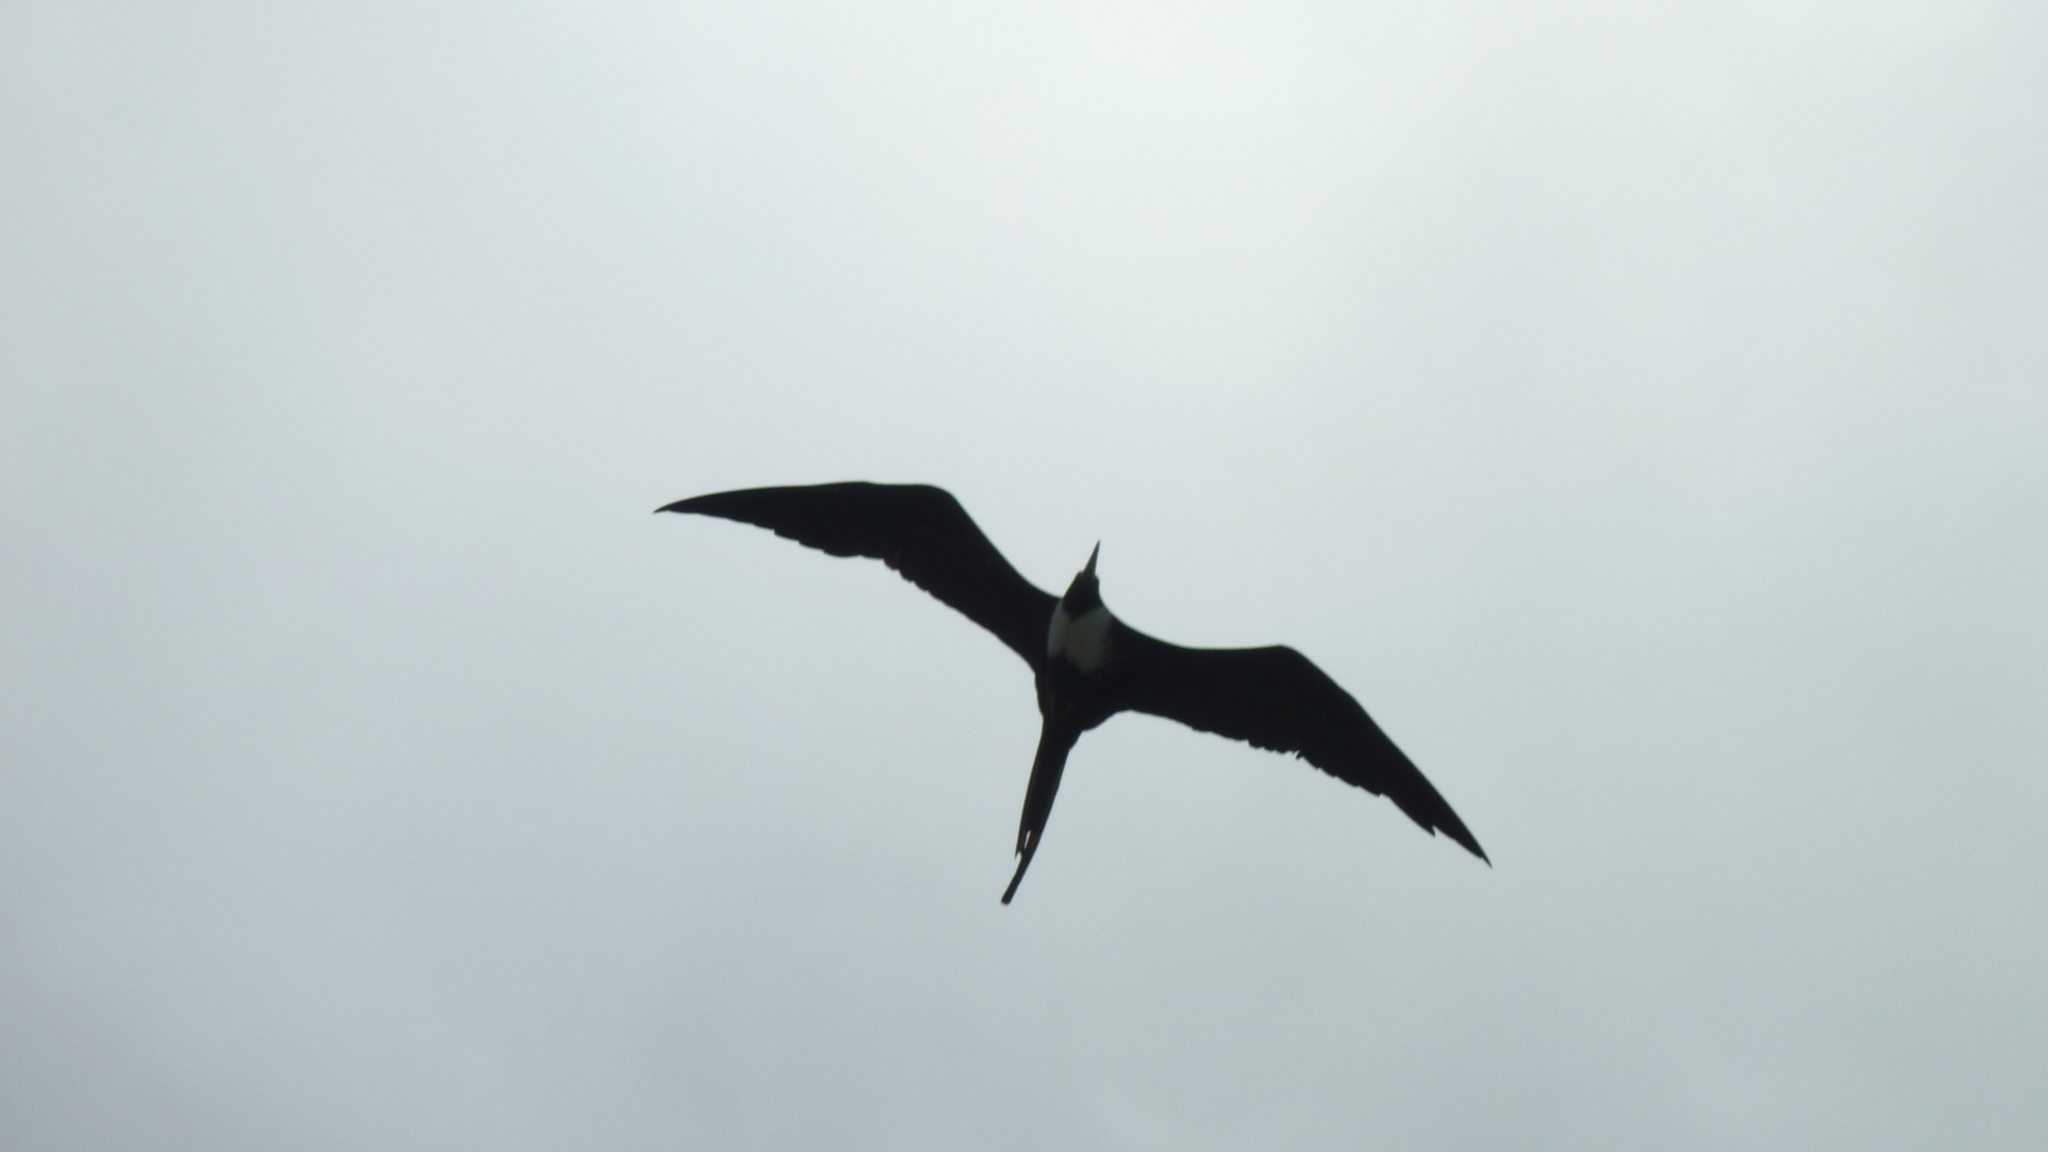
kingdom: Animalia
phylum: Chordata
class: Aves
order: Suliformes
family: Fregatidae
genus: Fregata
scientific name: Fregata magnificens
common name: Magnificent frigatebird
